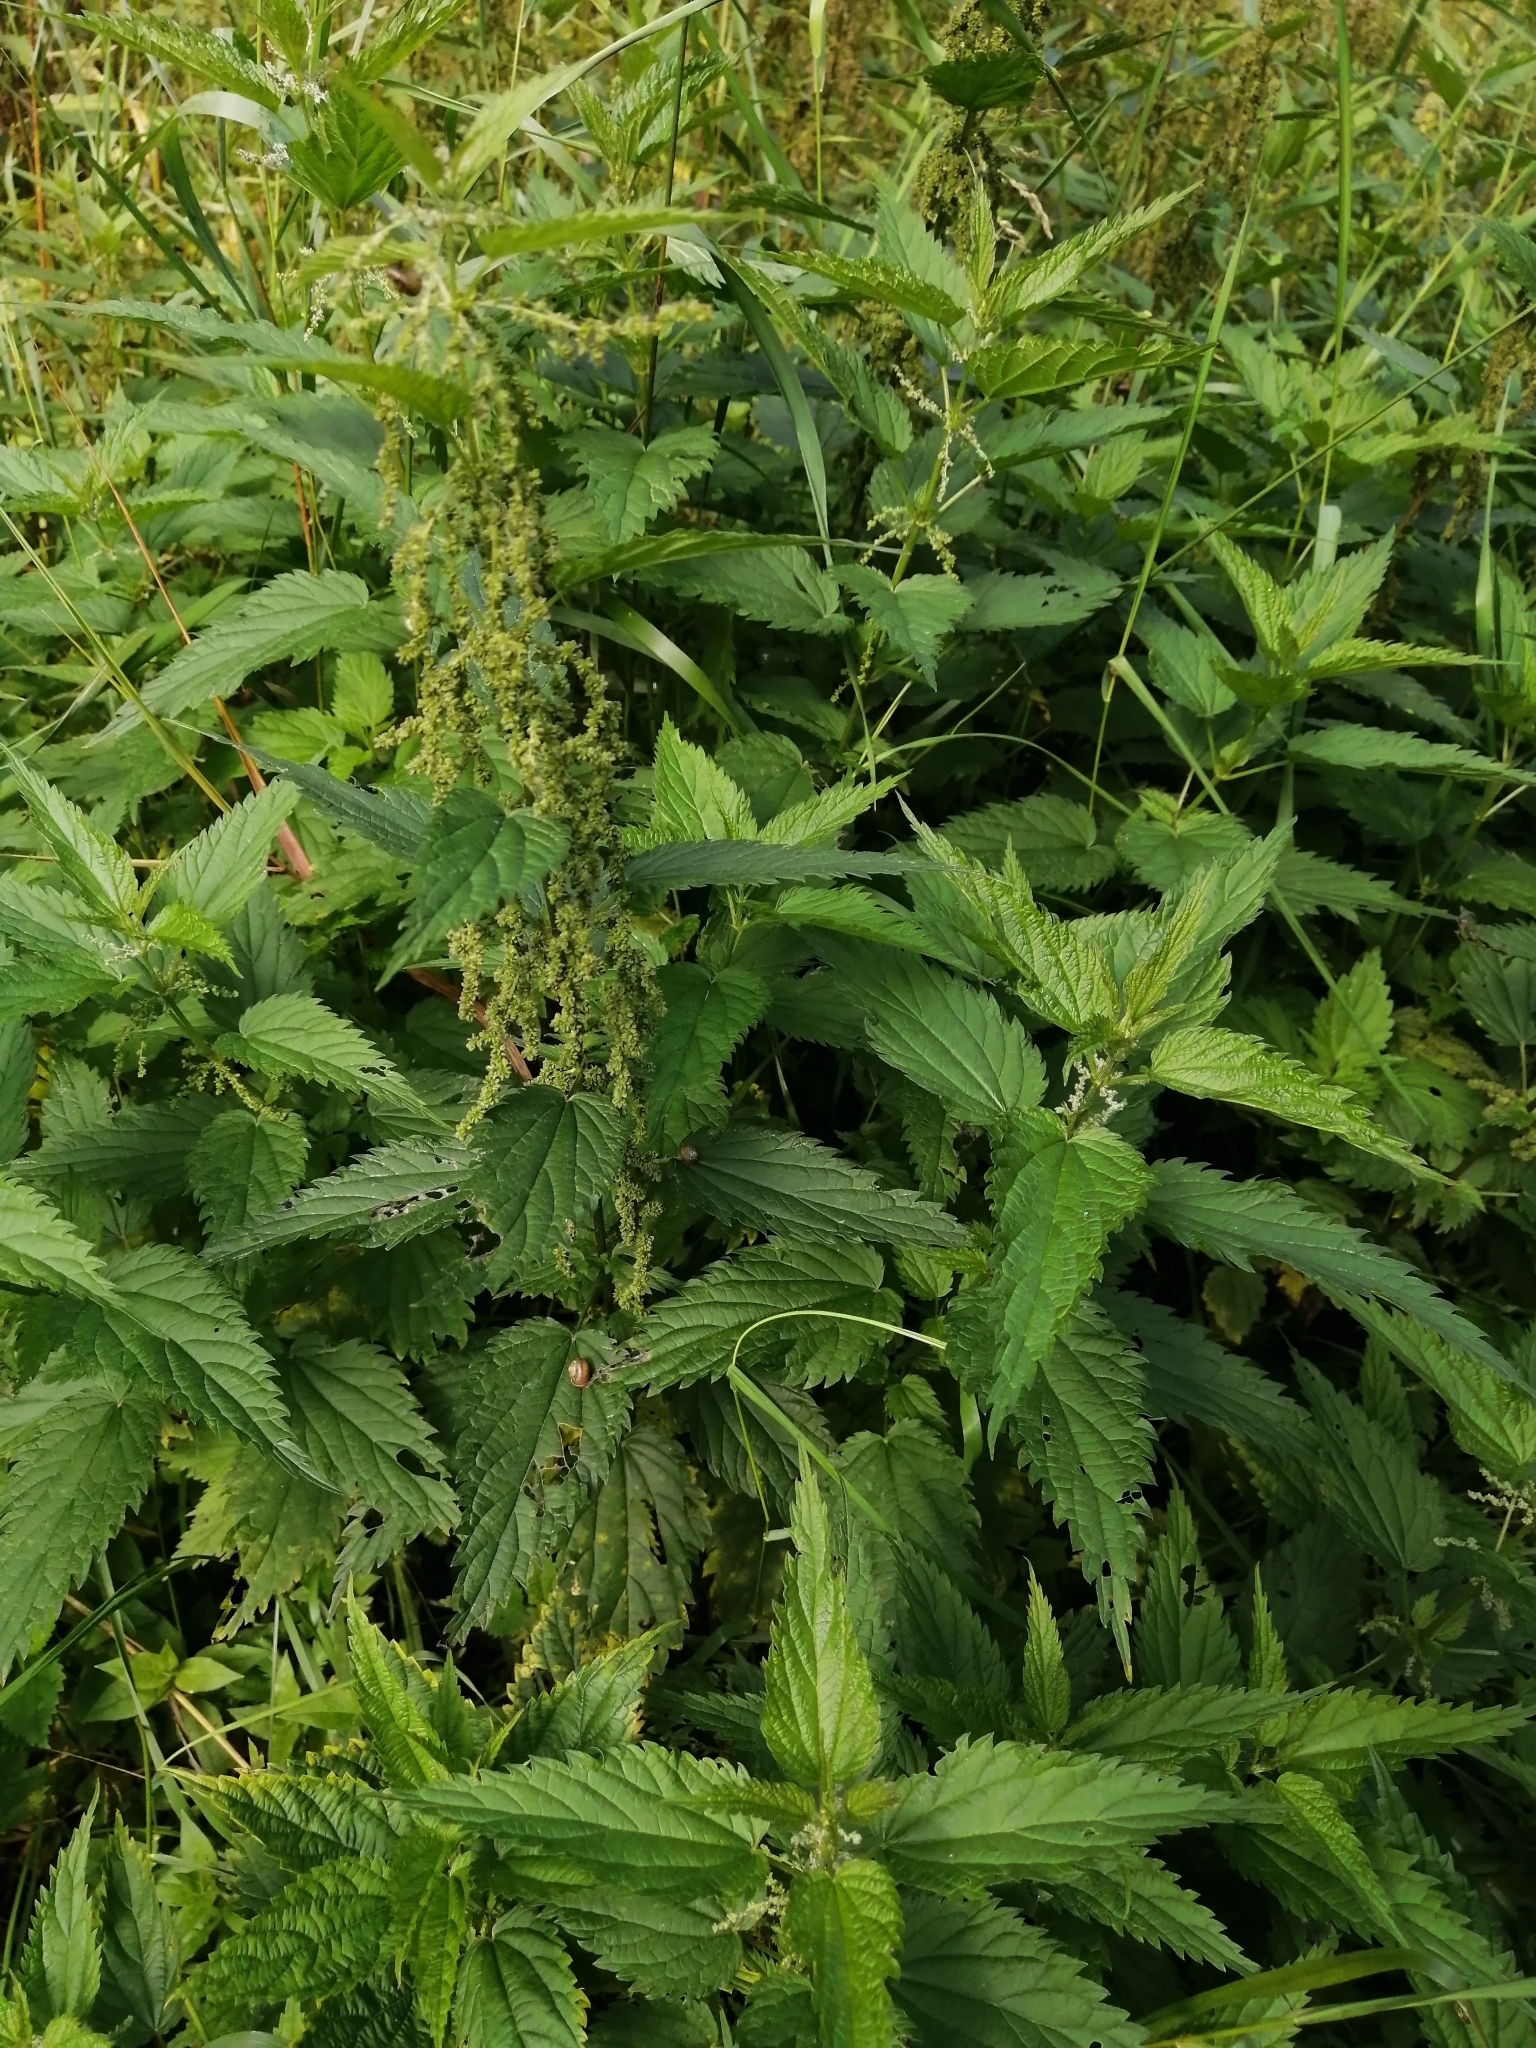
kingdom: Plantae
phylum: Tracheophyta
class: Magnoliopsida
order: Rosales
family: Urticaceae
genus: Urtica
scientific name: Urtica dioica
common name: Common nettle
